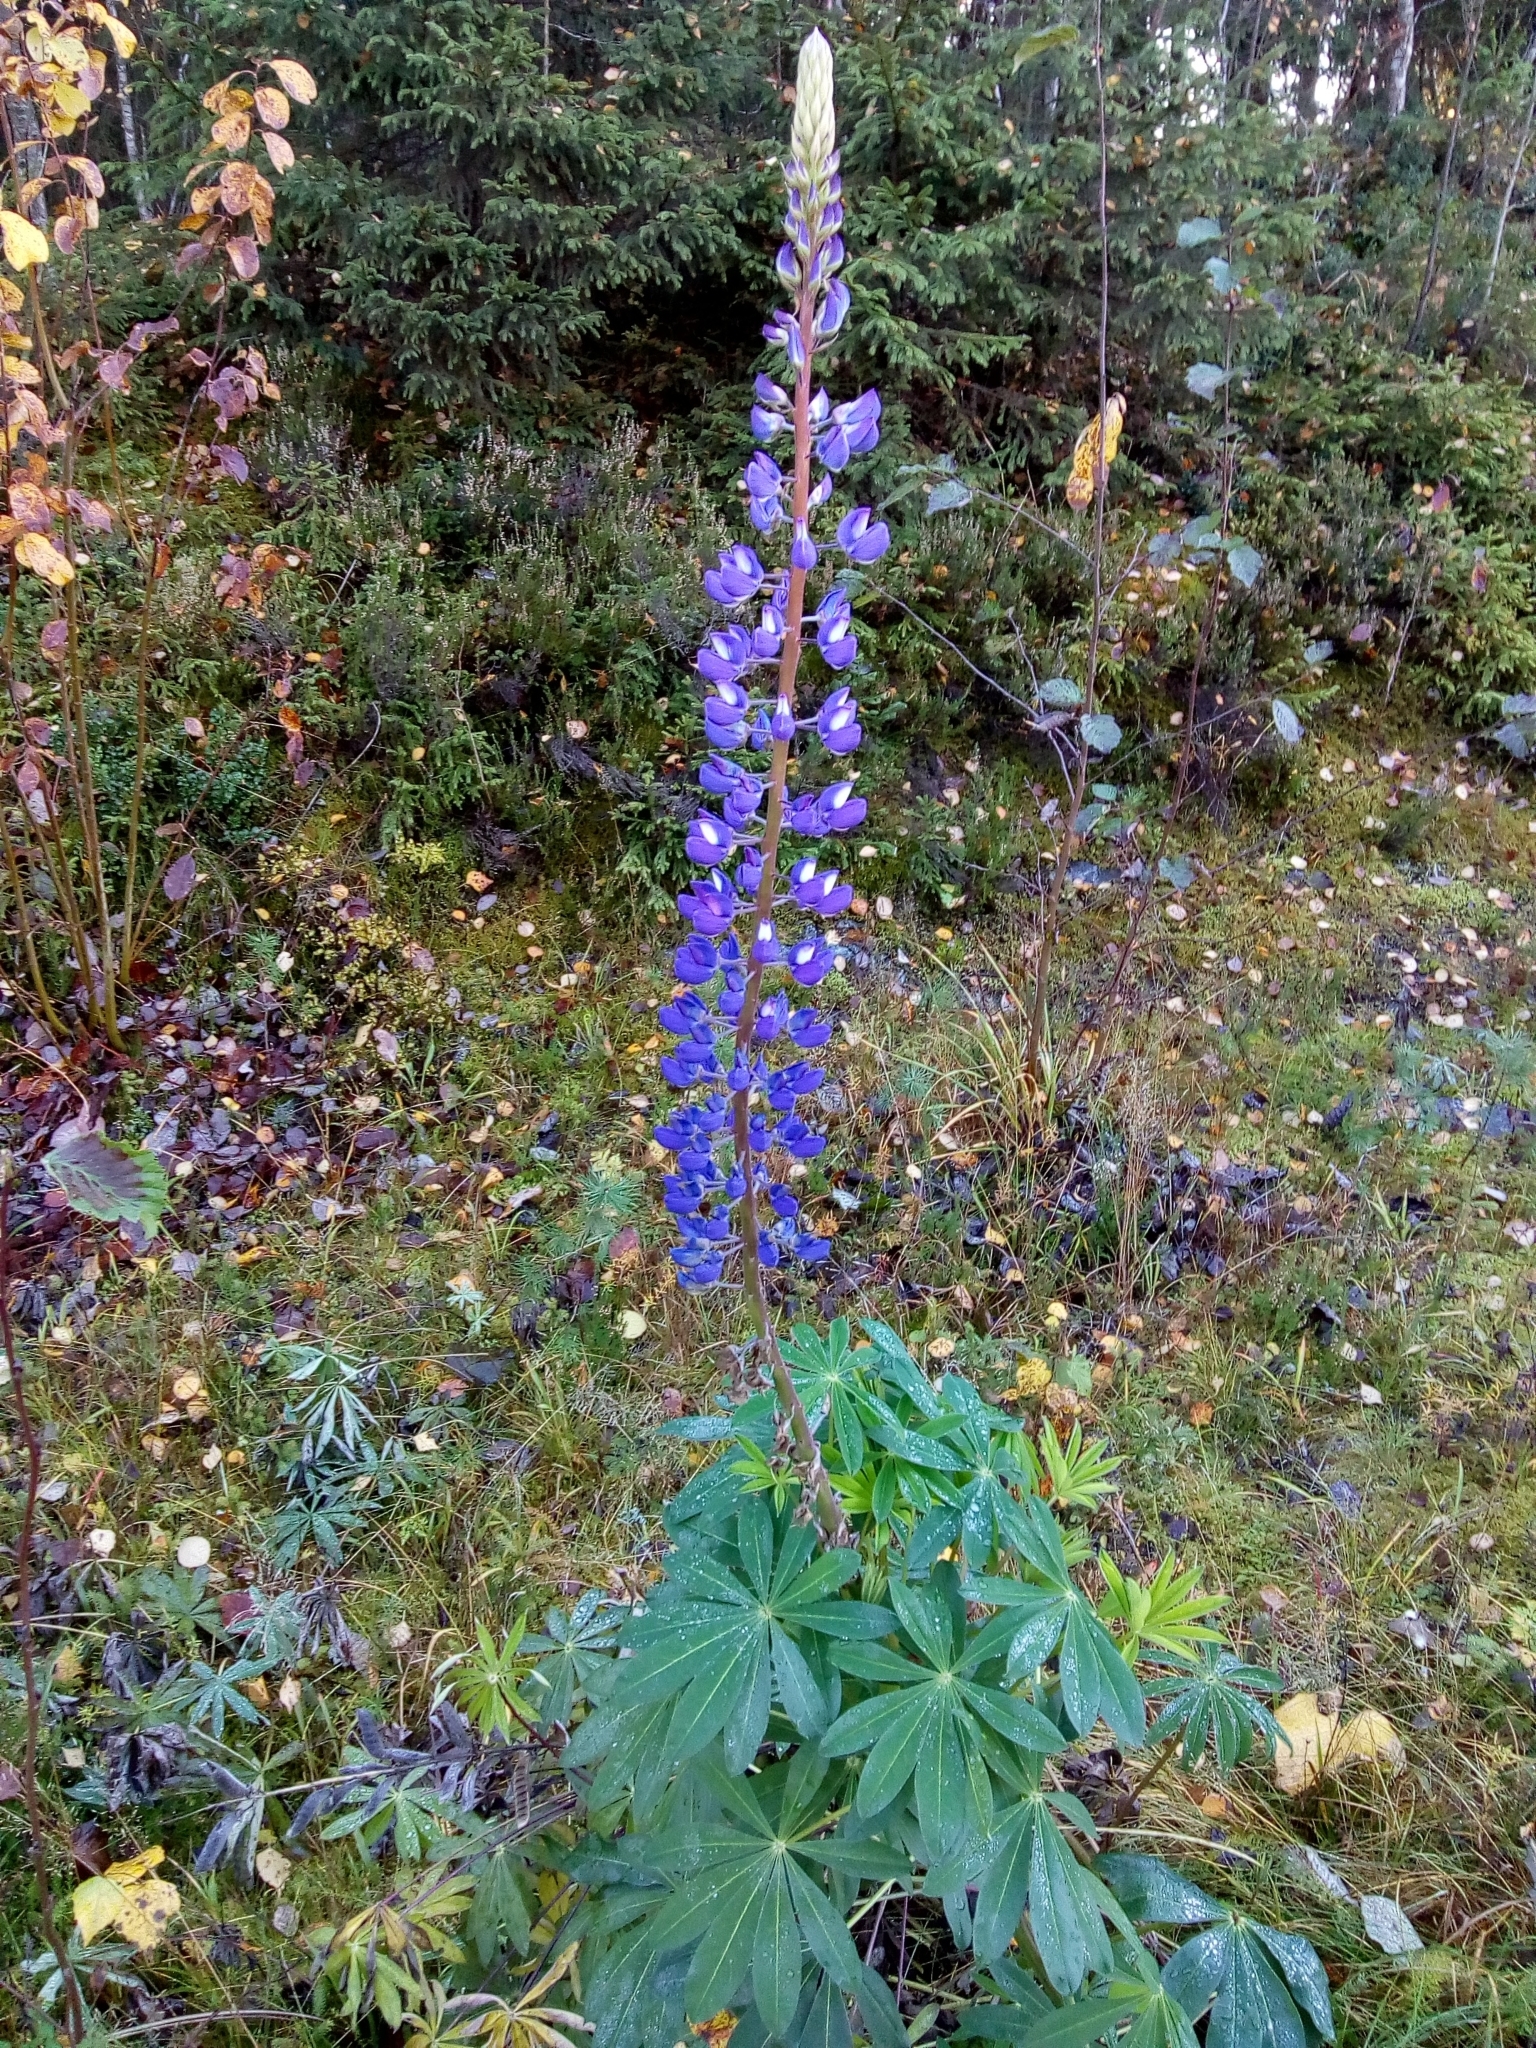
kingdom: Plantae
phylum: Tracheophyta
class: Magnoliopsida
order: Fabales
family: Fabaceae
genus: Lupinus
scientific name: Lupinus polyphyllus
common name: Garden lupin
